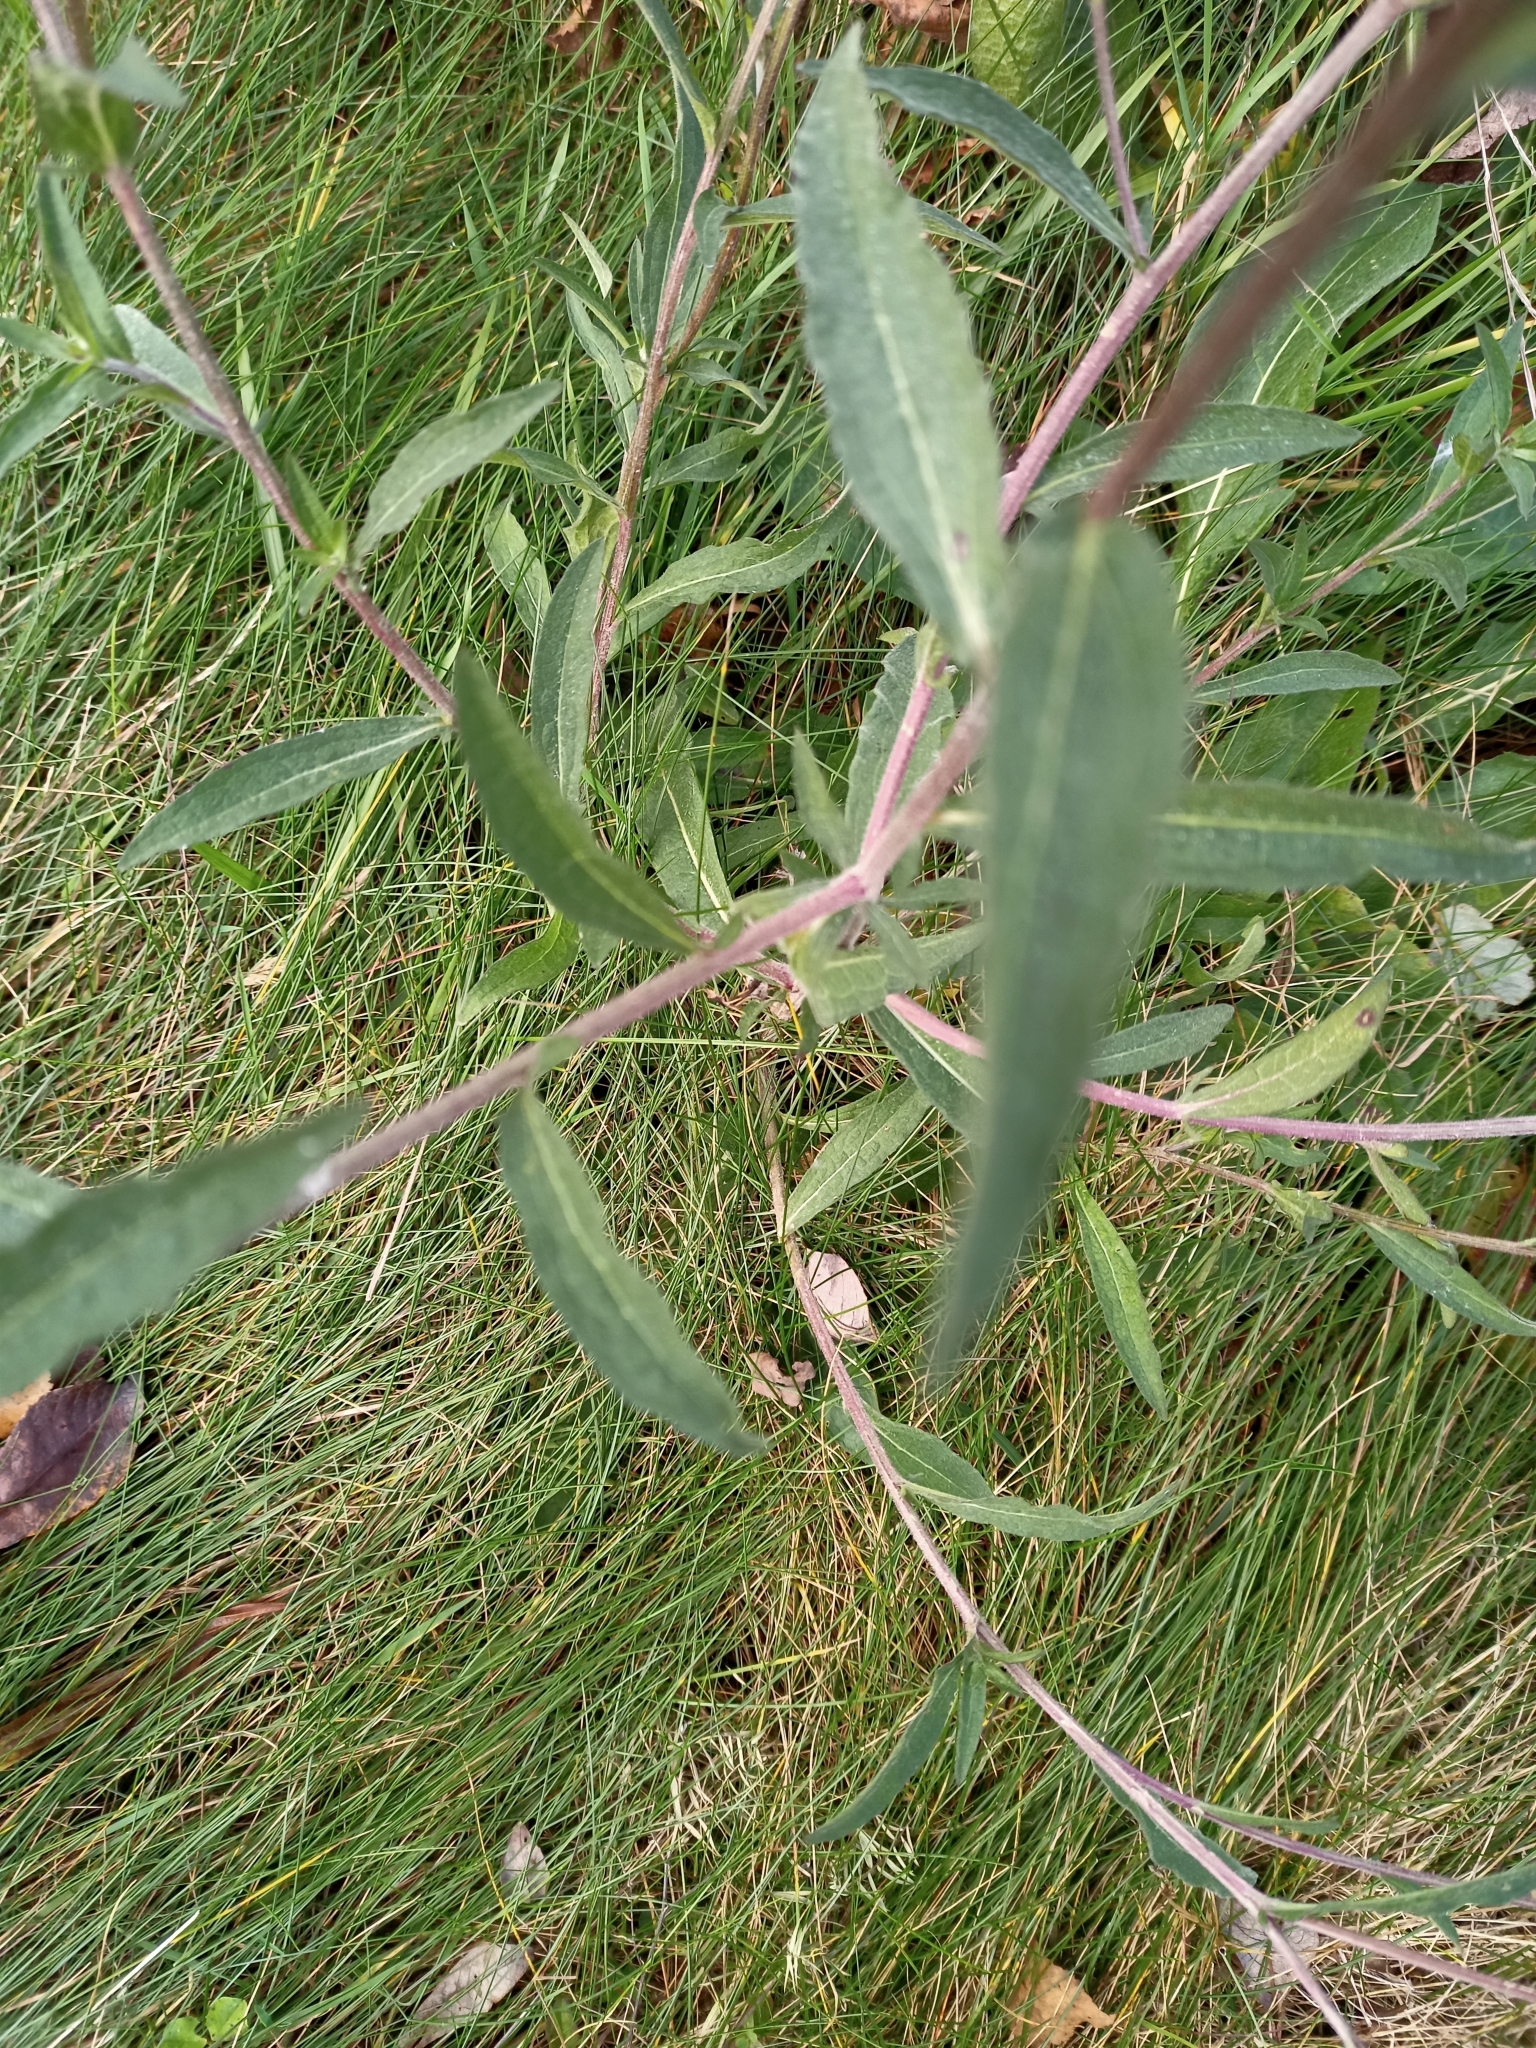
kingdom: Plantae
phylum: Tracheophyta
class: Magnoliopsida
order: Asterales
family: Asteraceae
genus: Centaurea
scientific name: Centaurea nigra
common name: Lesser knapweed
